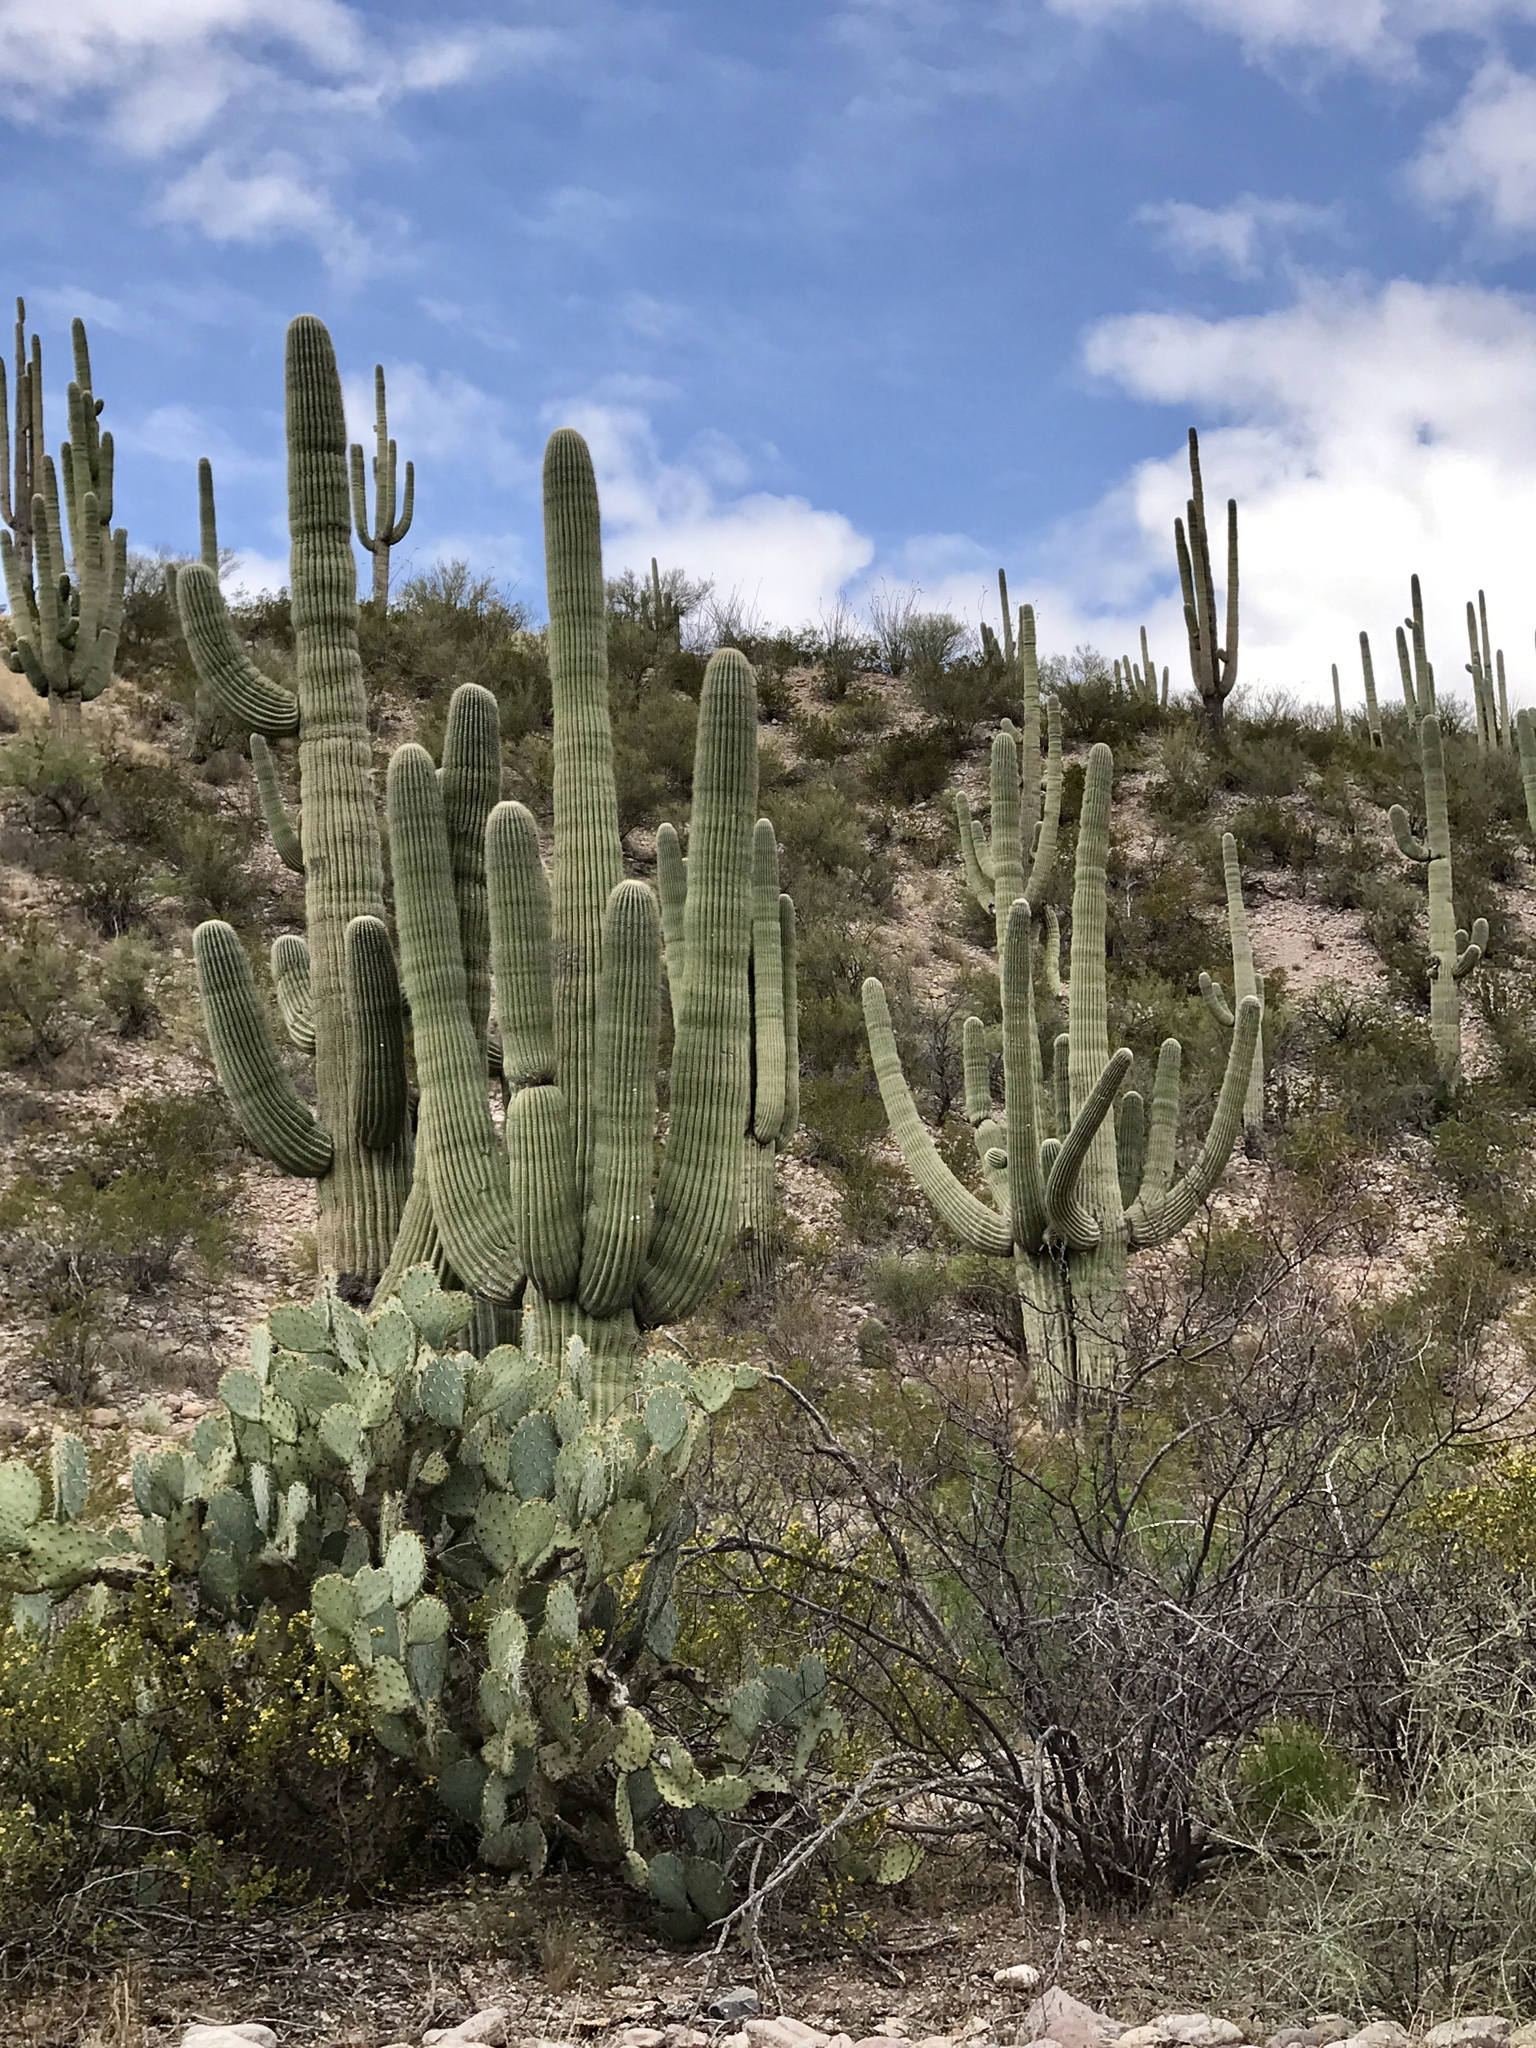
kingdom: Plantae
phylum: Tracheophyta
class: Magnoliopsida
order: Caryophyllales
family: Cactaceae
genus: Carnegiea
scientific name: Carnegiea gigantea
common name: Saguaro
